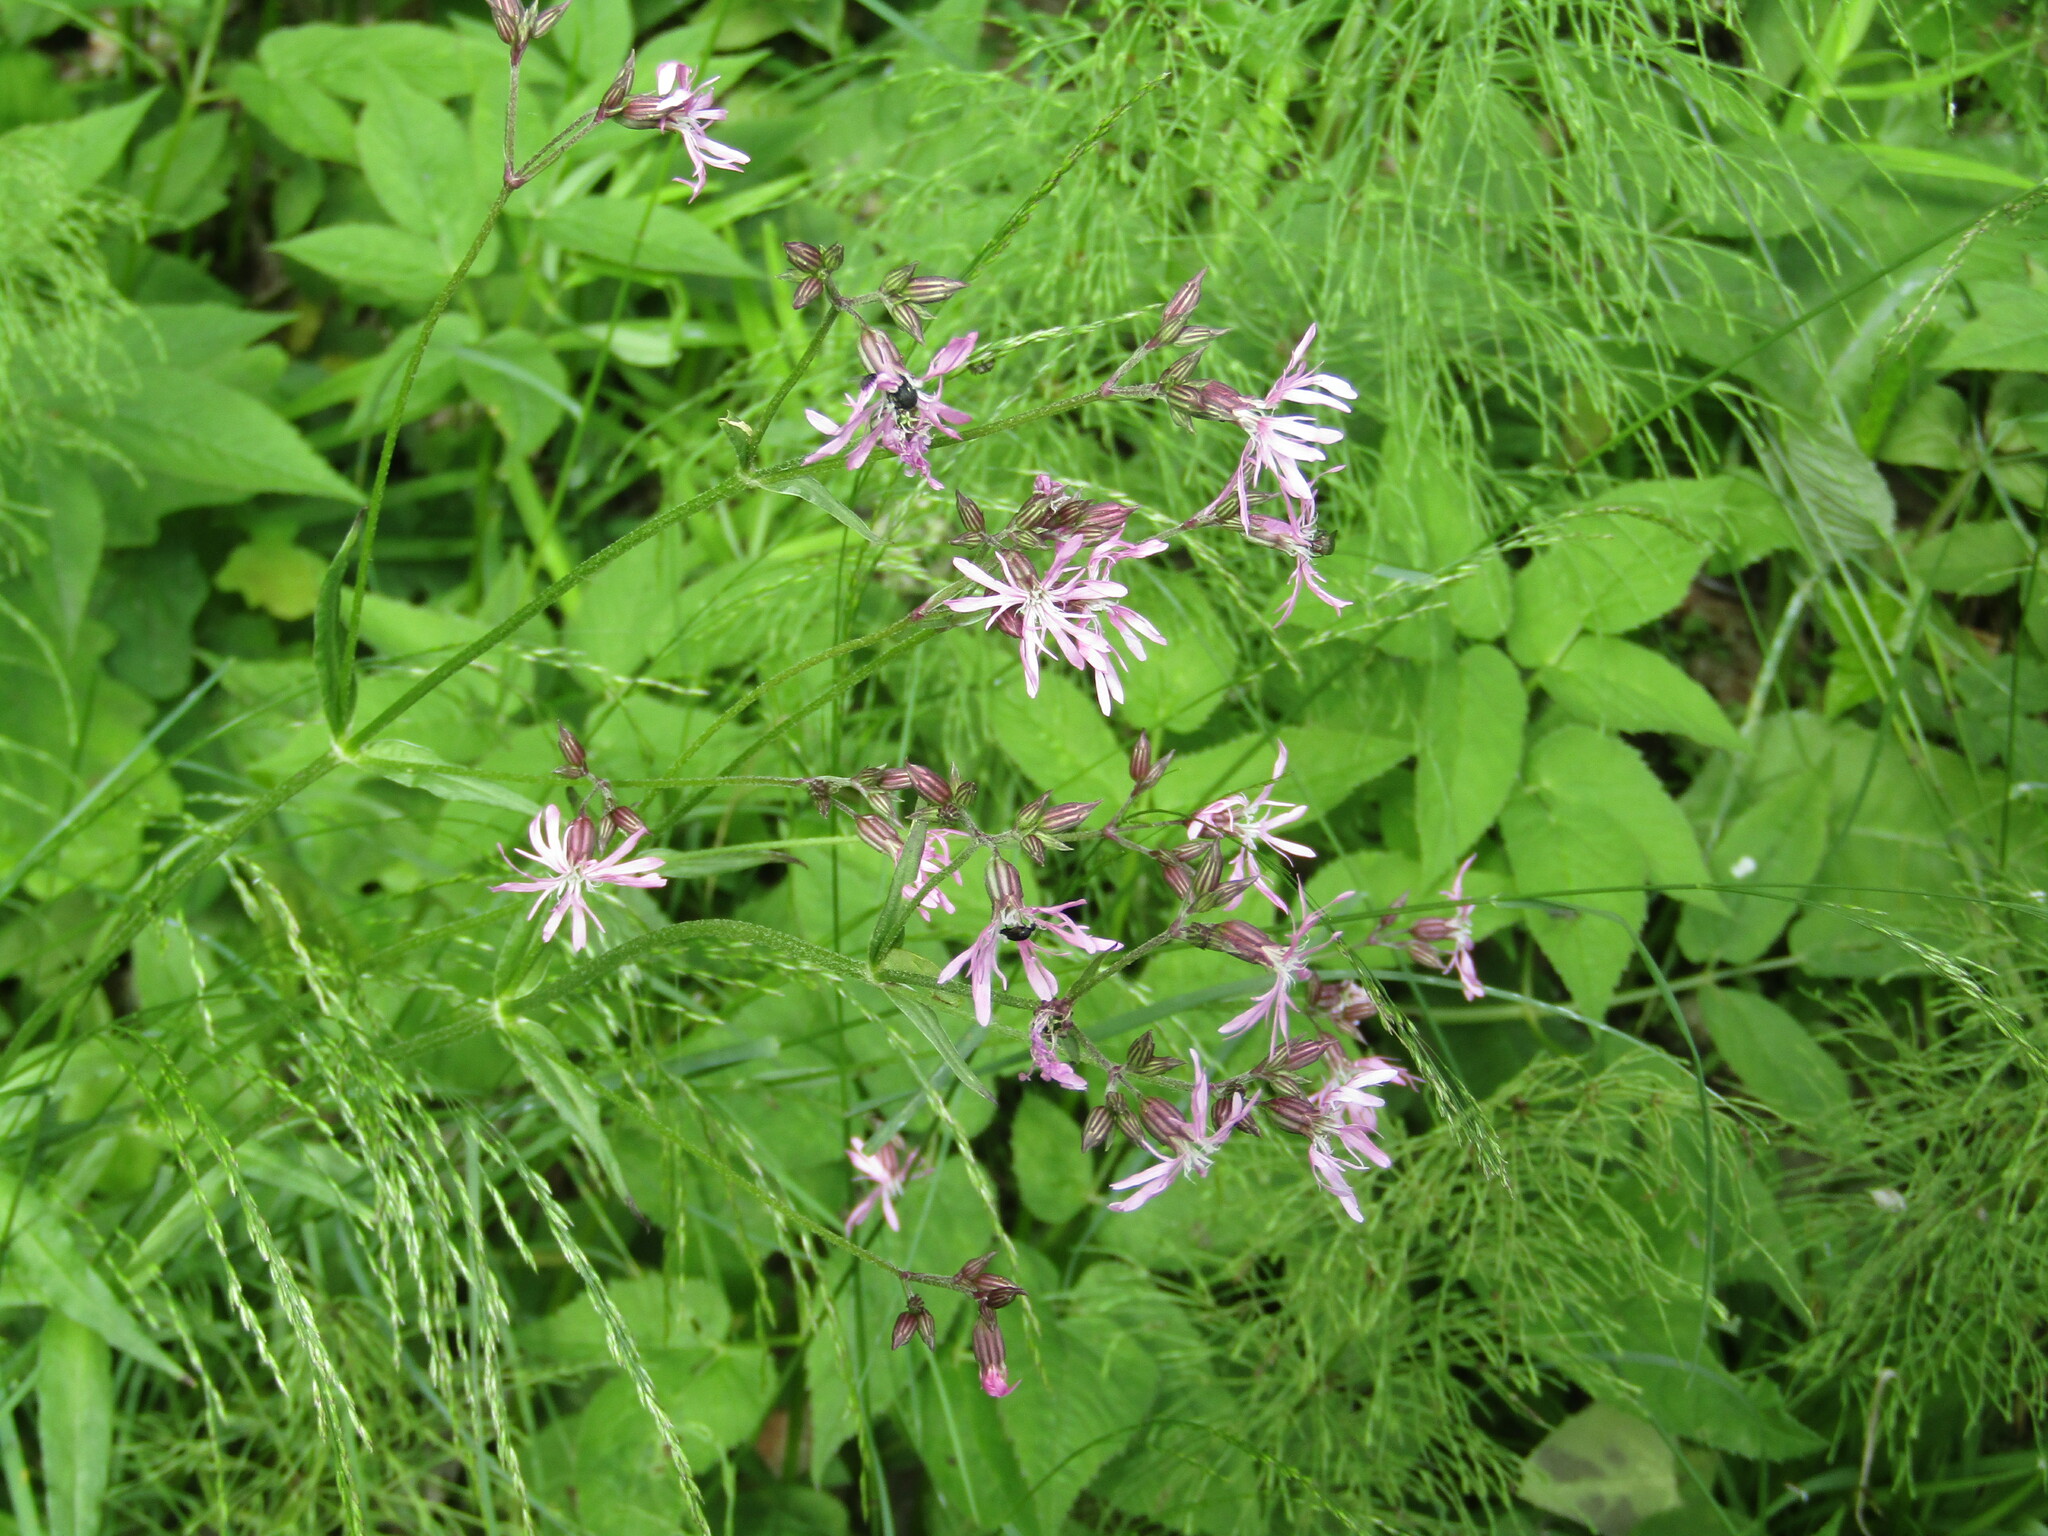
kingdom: Plantae
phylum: Tracheophyta
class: Magnoliopsida
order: Caryophyllales
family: Caryophyllaceae
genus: Silene
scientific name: Silene flos-cuculi
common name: Ragged-robin
